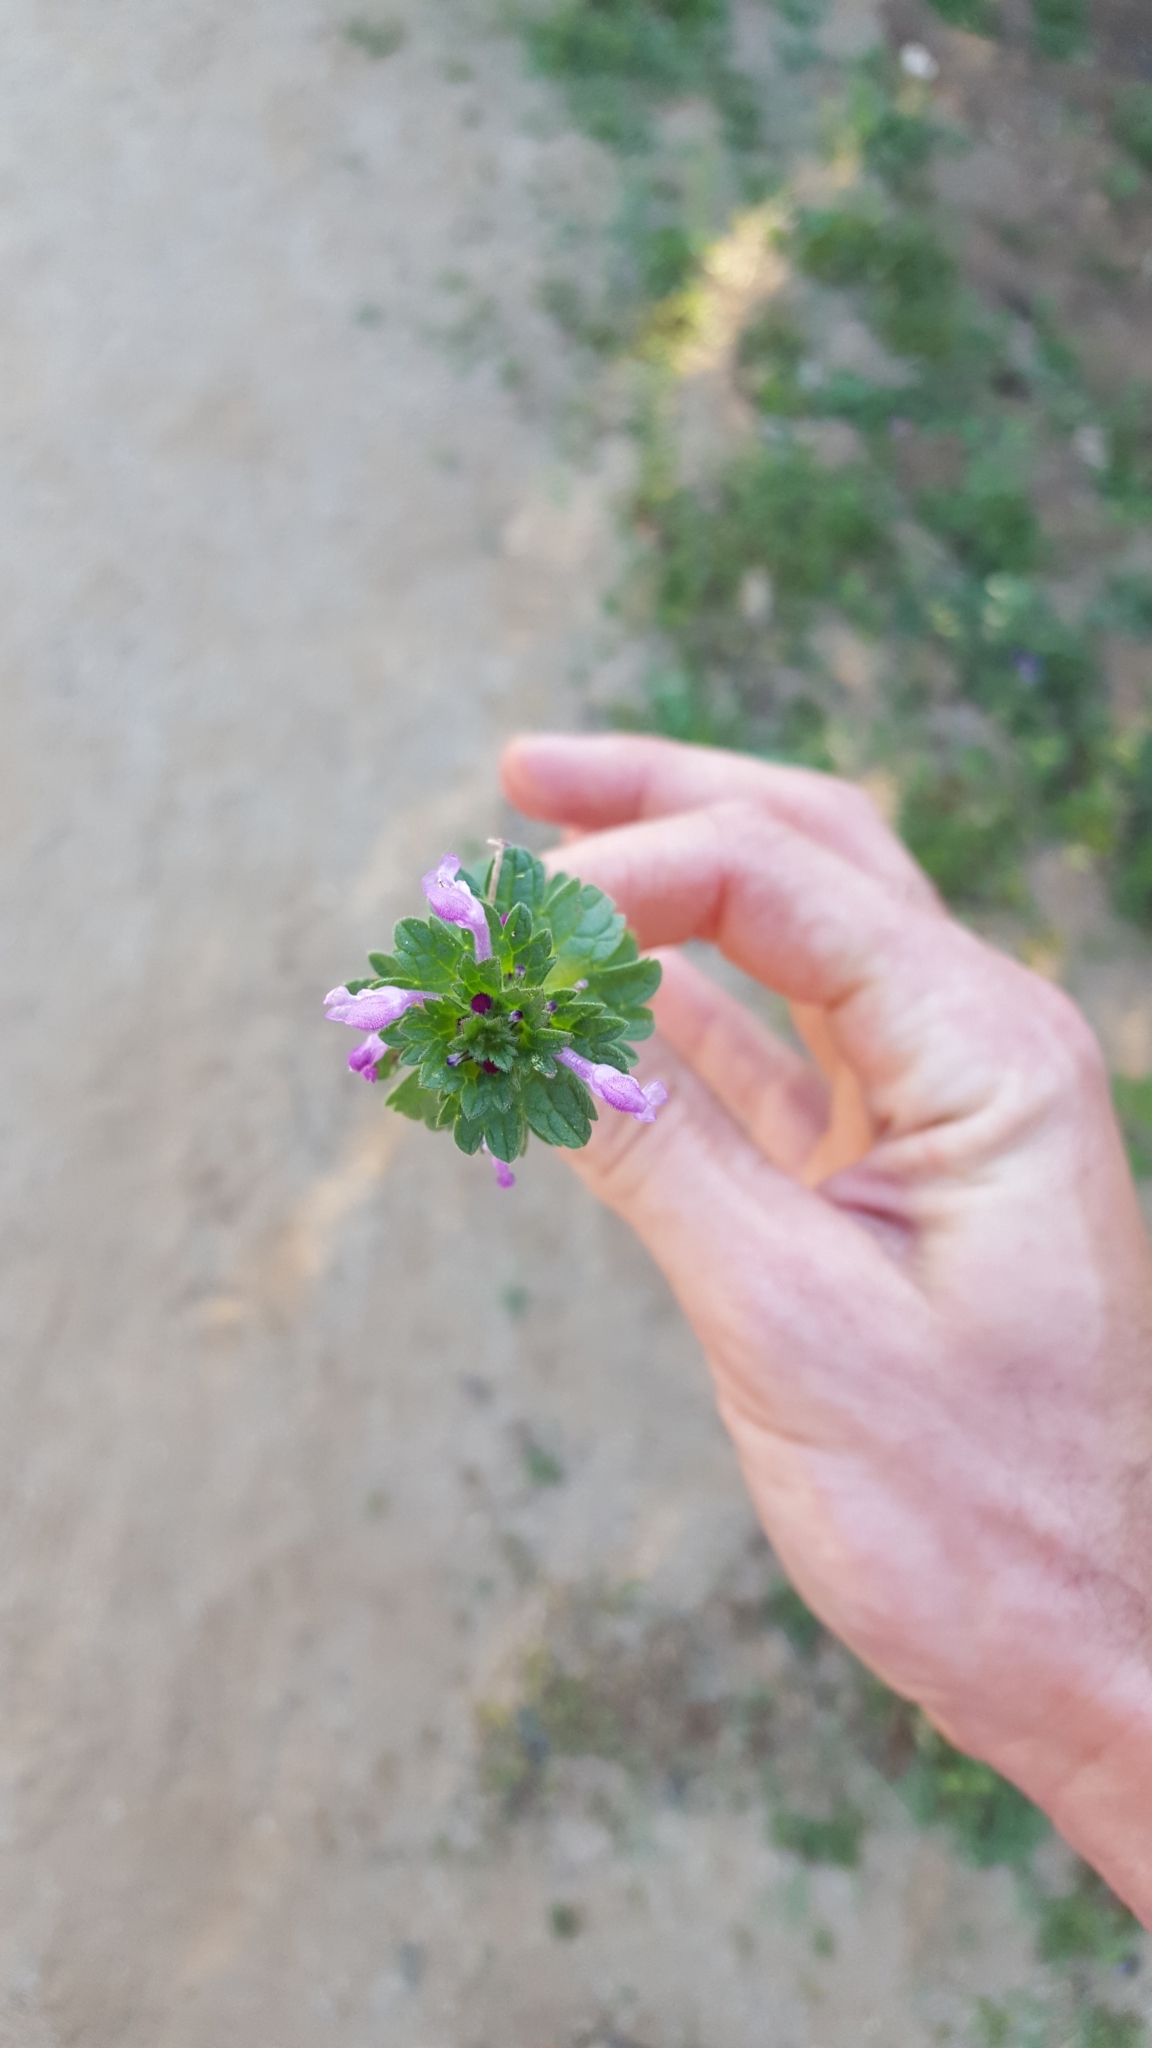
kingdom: Plantae
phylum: Tracheophyta
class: Magnoliopsida
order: Lamiales
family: Lamiaceae
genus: Lamium
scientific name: Lamium amplexicaule
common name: Henbit dead-nettle
